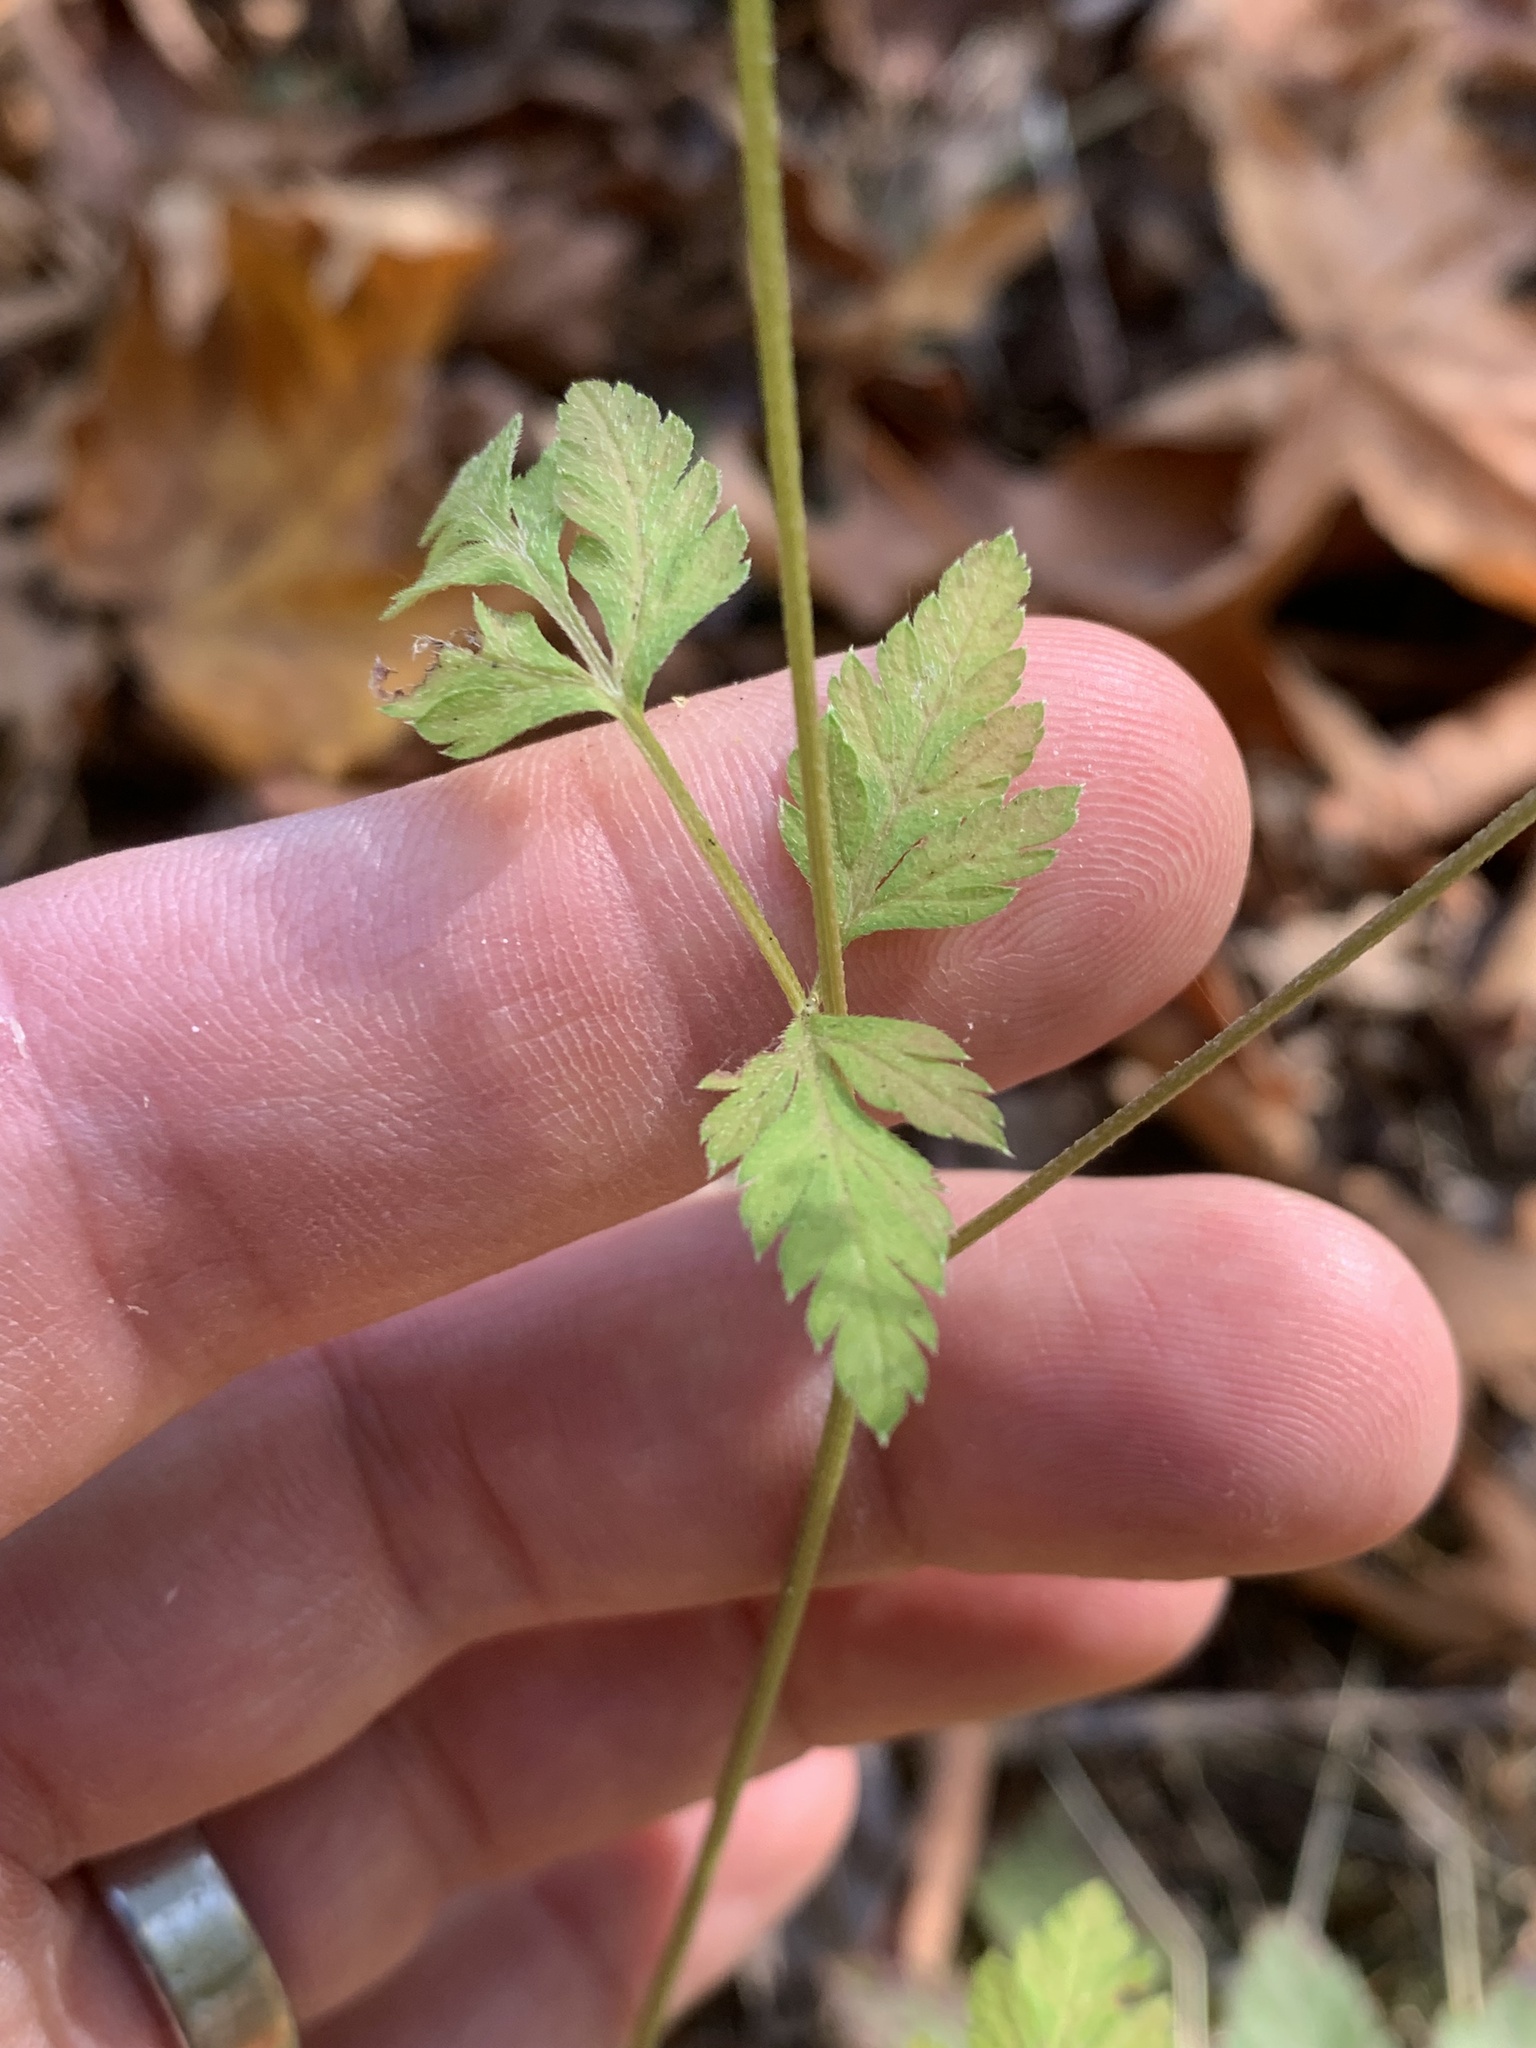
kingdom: Plantae
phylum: Tracheophyta
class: Magnoliopsida
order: Apiales
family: Apiaceae
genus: Torilis
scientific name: Torilis japonica
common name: Upright hedge-parsley
